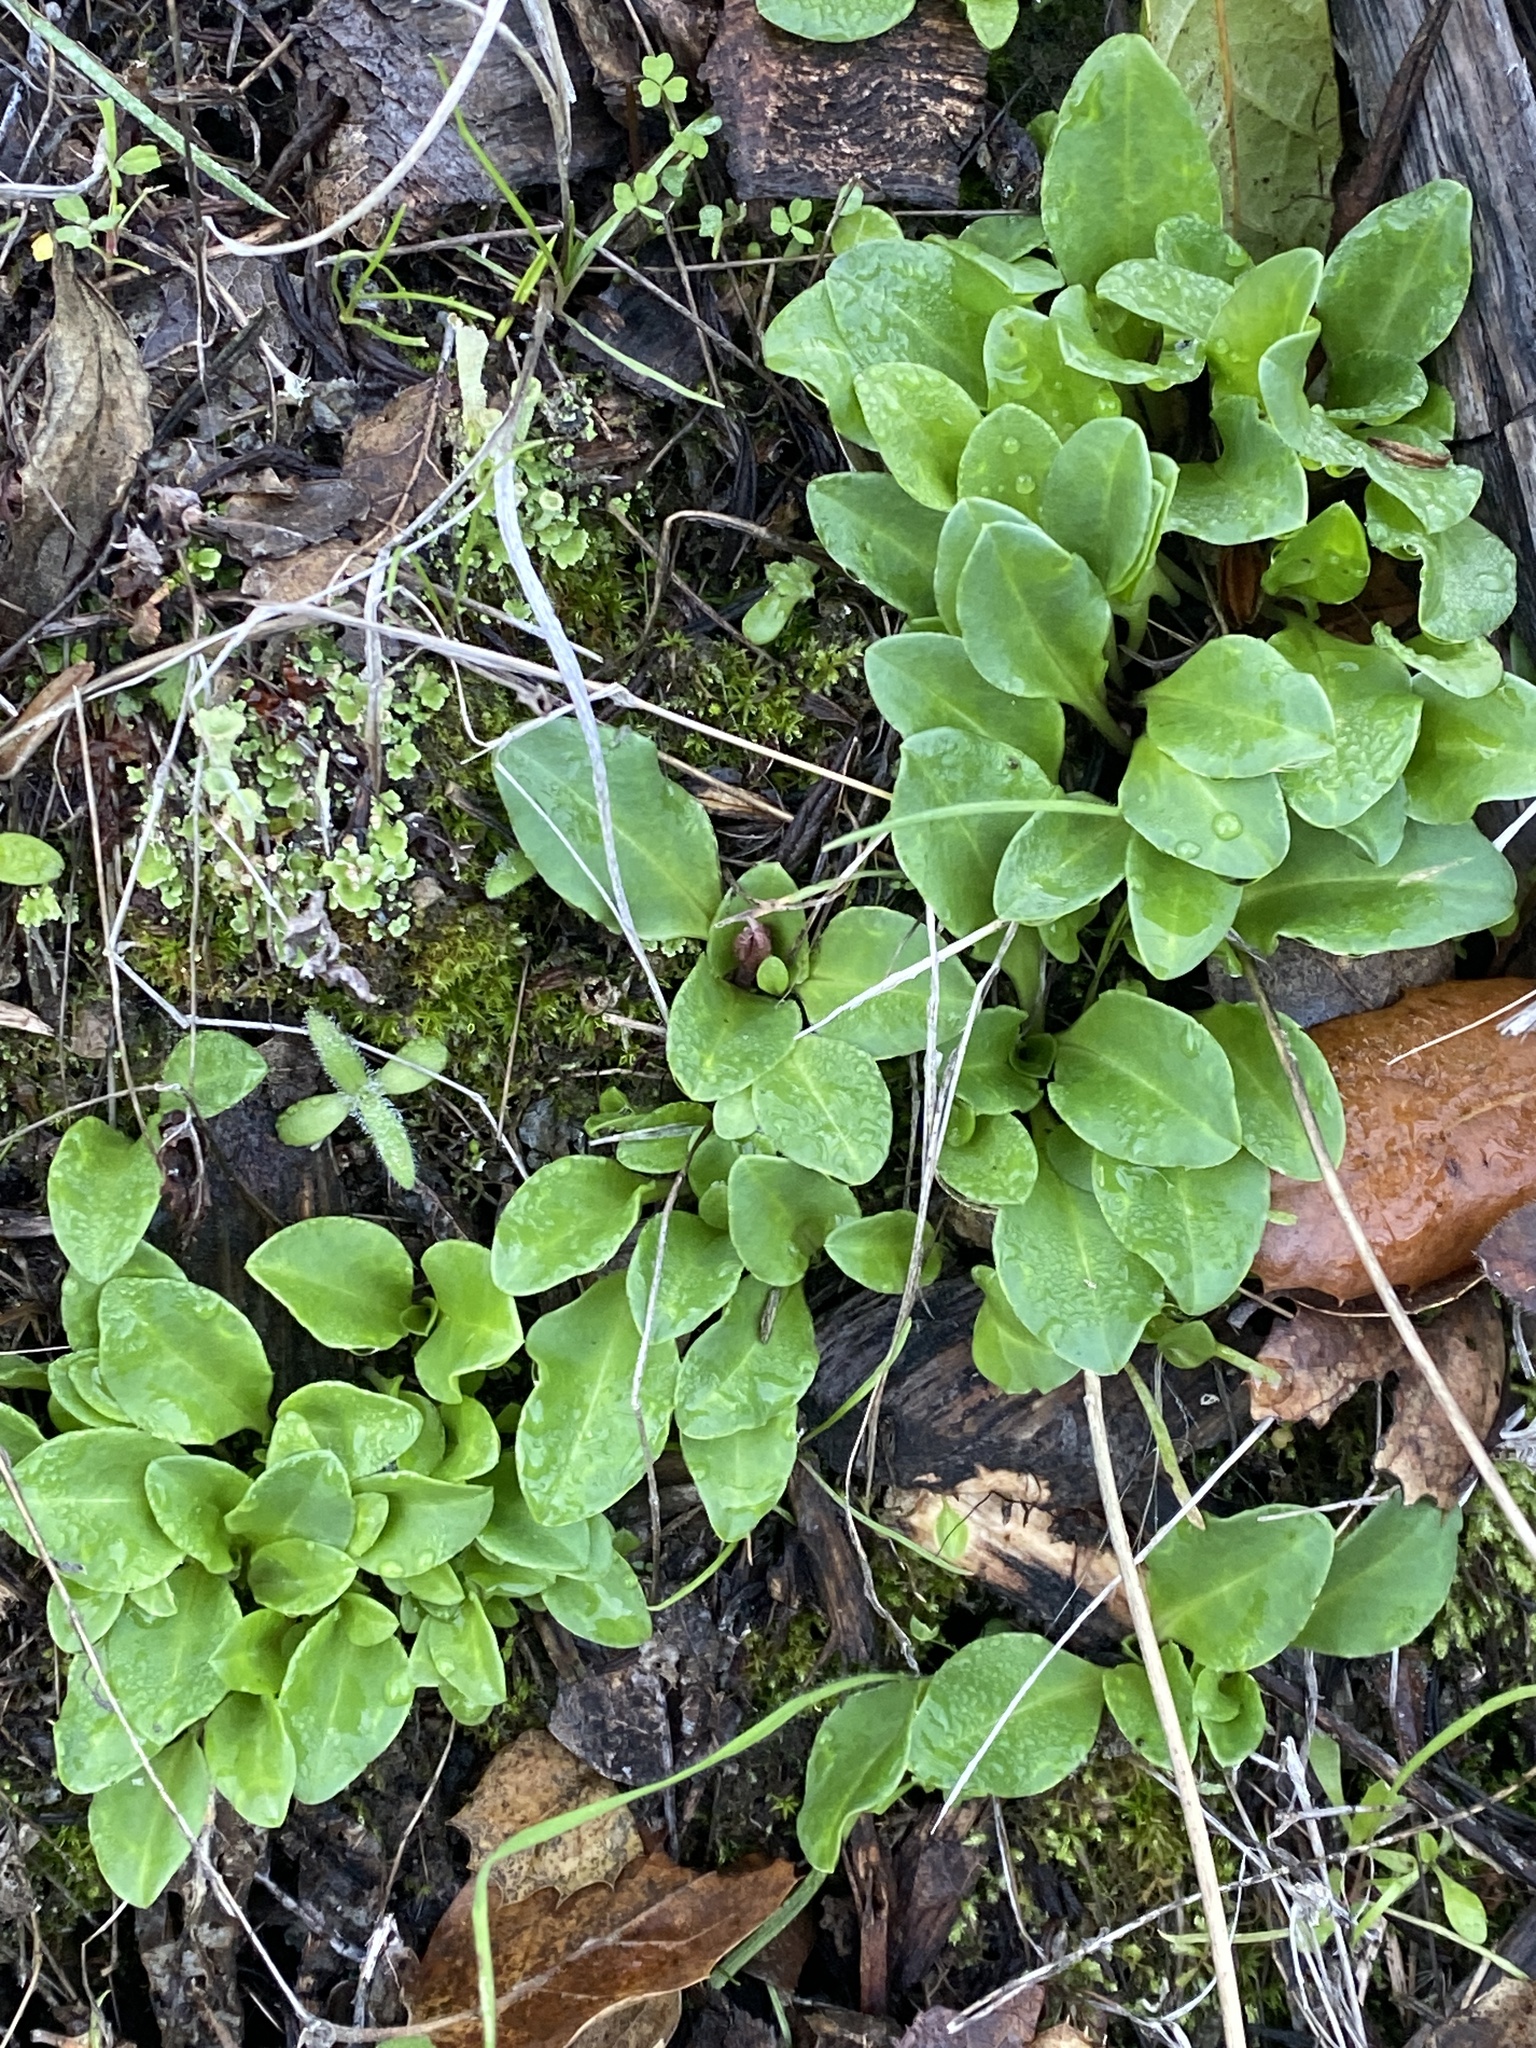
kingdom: Plantae
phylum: Tracheophyta
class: Magnoliopsida
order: Ericales
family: Primulaceae
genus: Dodecatheon
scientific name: Dodecatheon hendersonii
